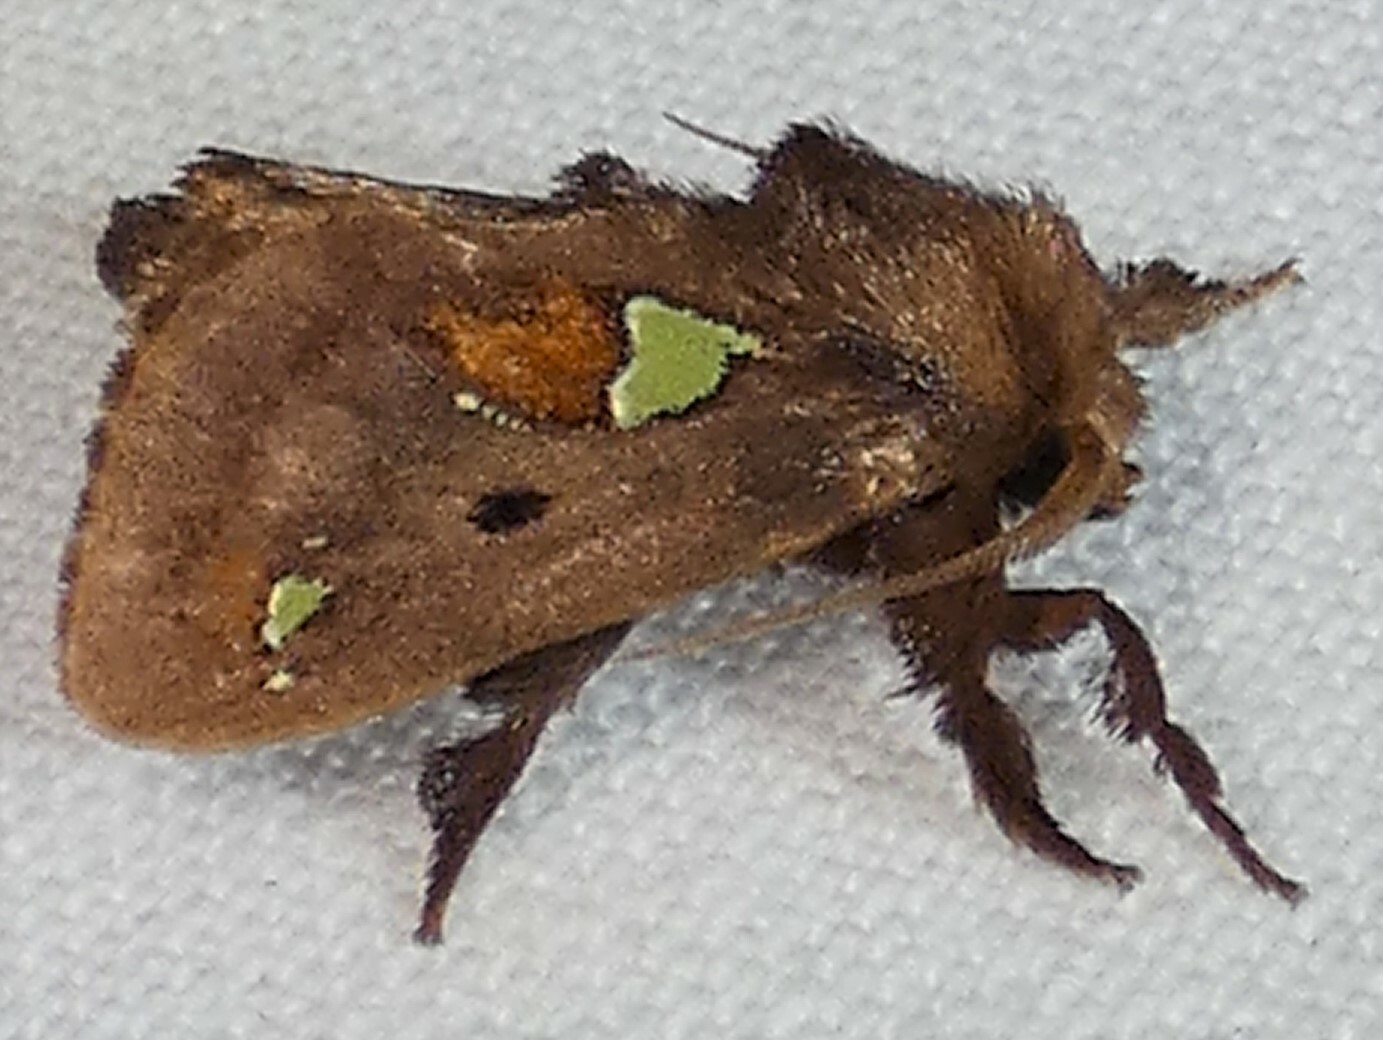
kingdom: Animalia
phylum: Arthropoda
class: Insecta
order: Lepidoptera
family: Limacodidae
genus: Euclea
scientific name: Euclea delphinii
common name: Spiny oak-slug moth
